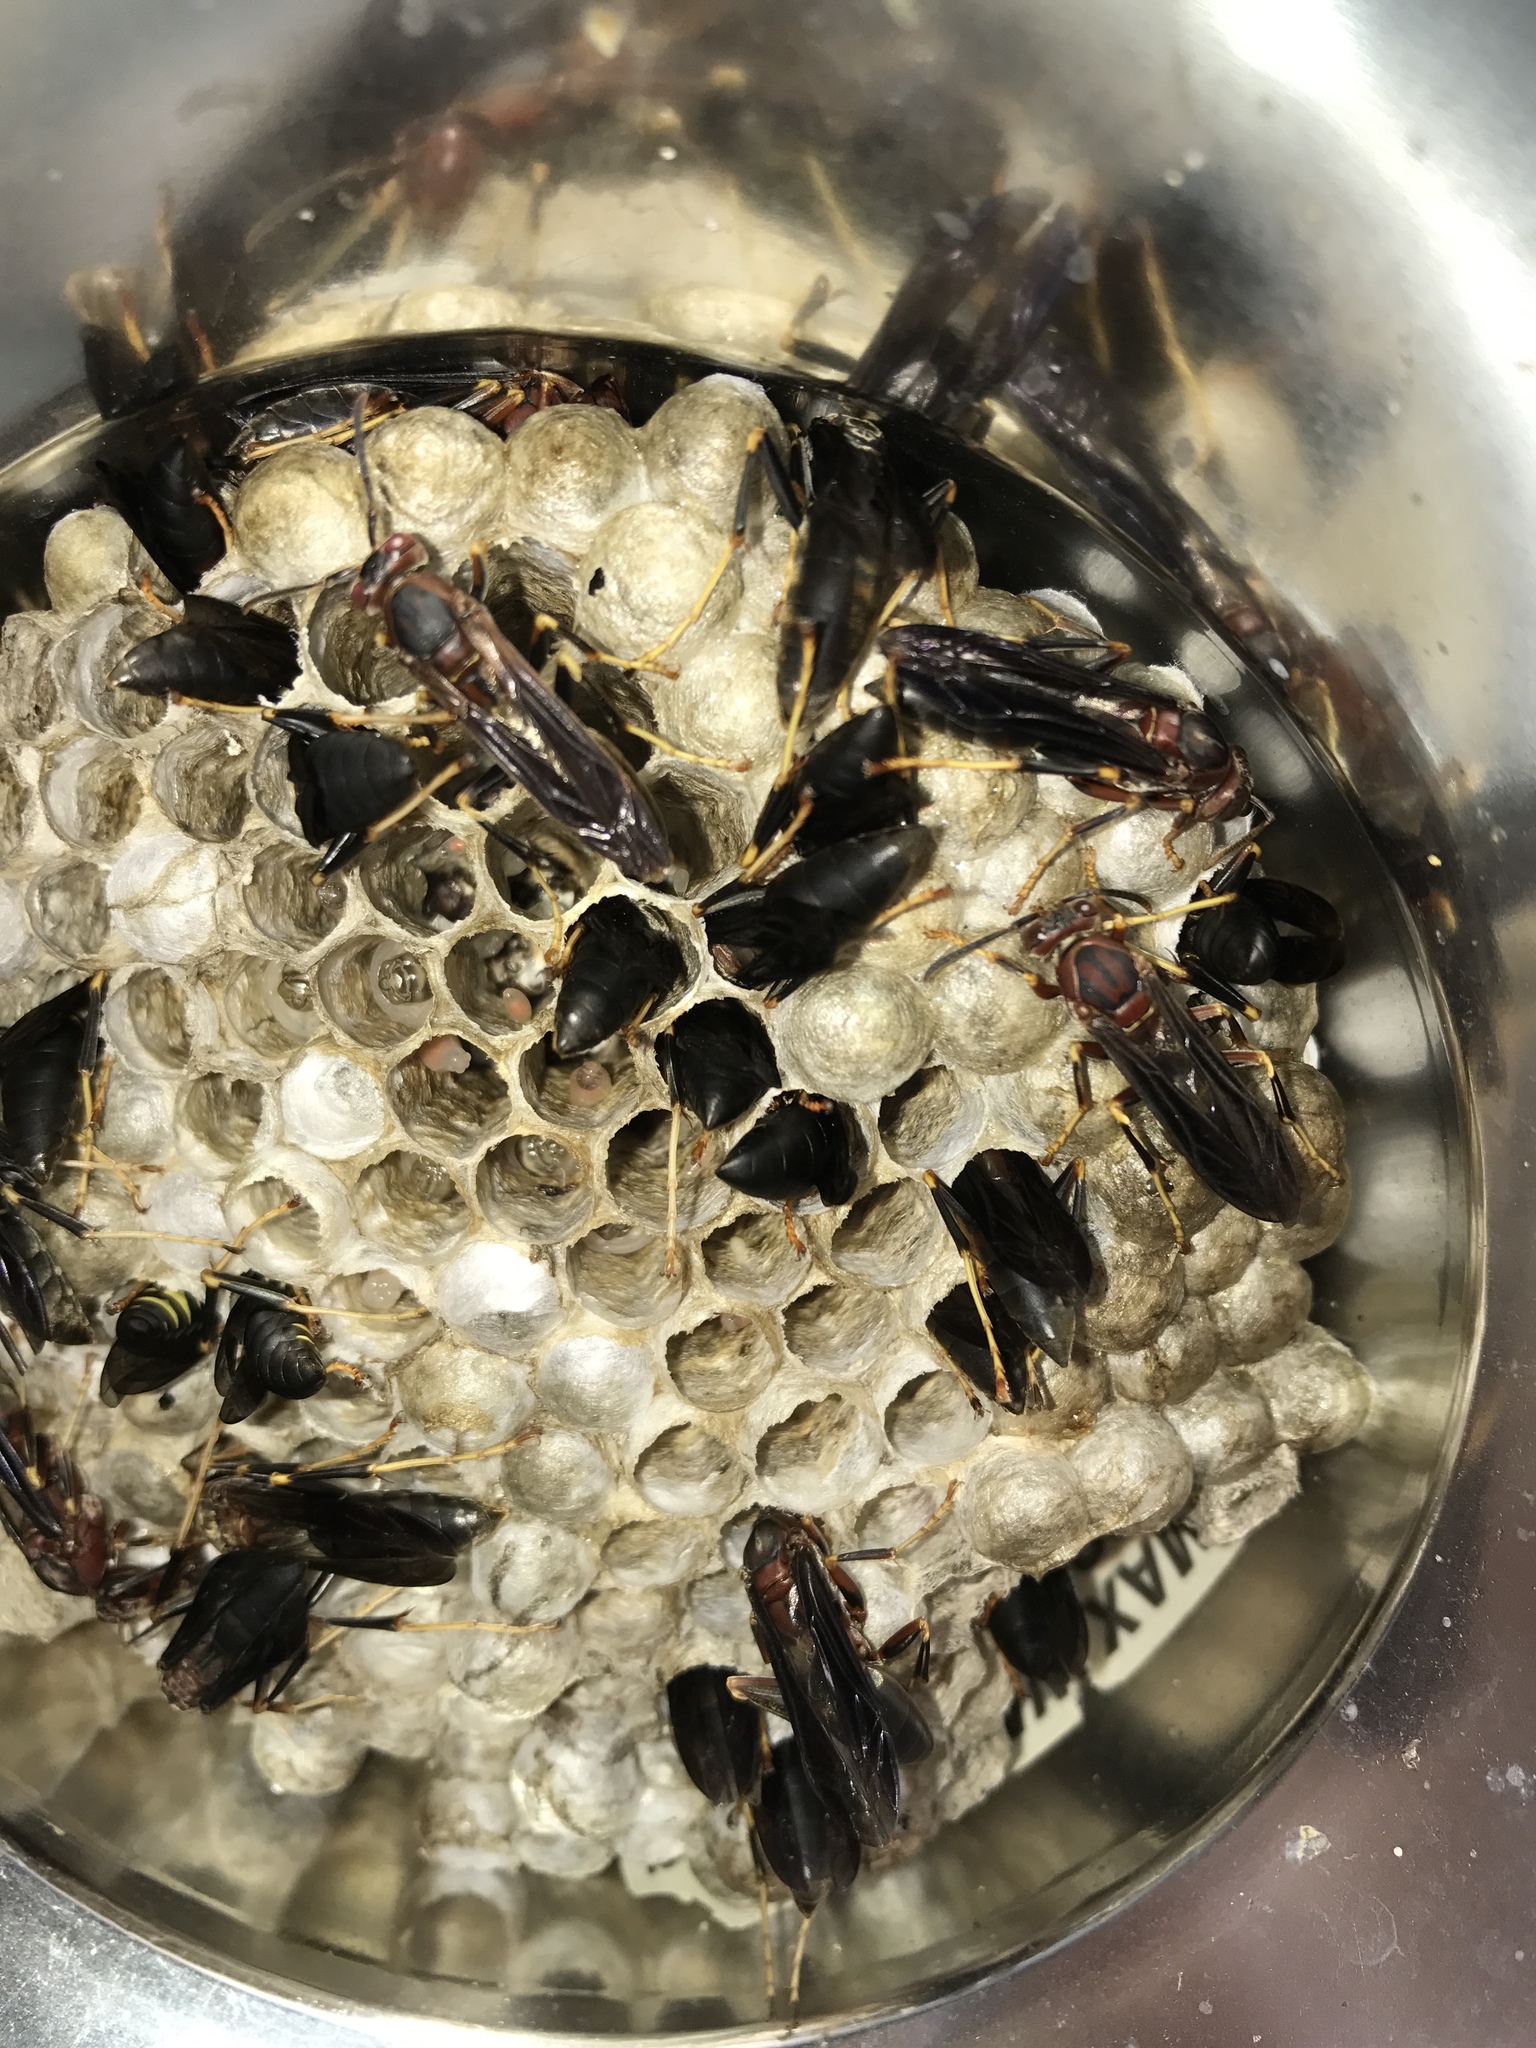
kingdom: Animalia
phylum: Arthropoda
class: Insecta
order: Hymenoptera
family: Eumenidae
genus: Polistes
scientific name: Polistes metricus
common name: Metric paper wasp
